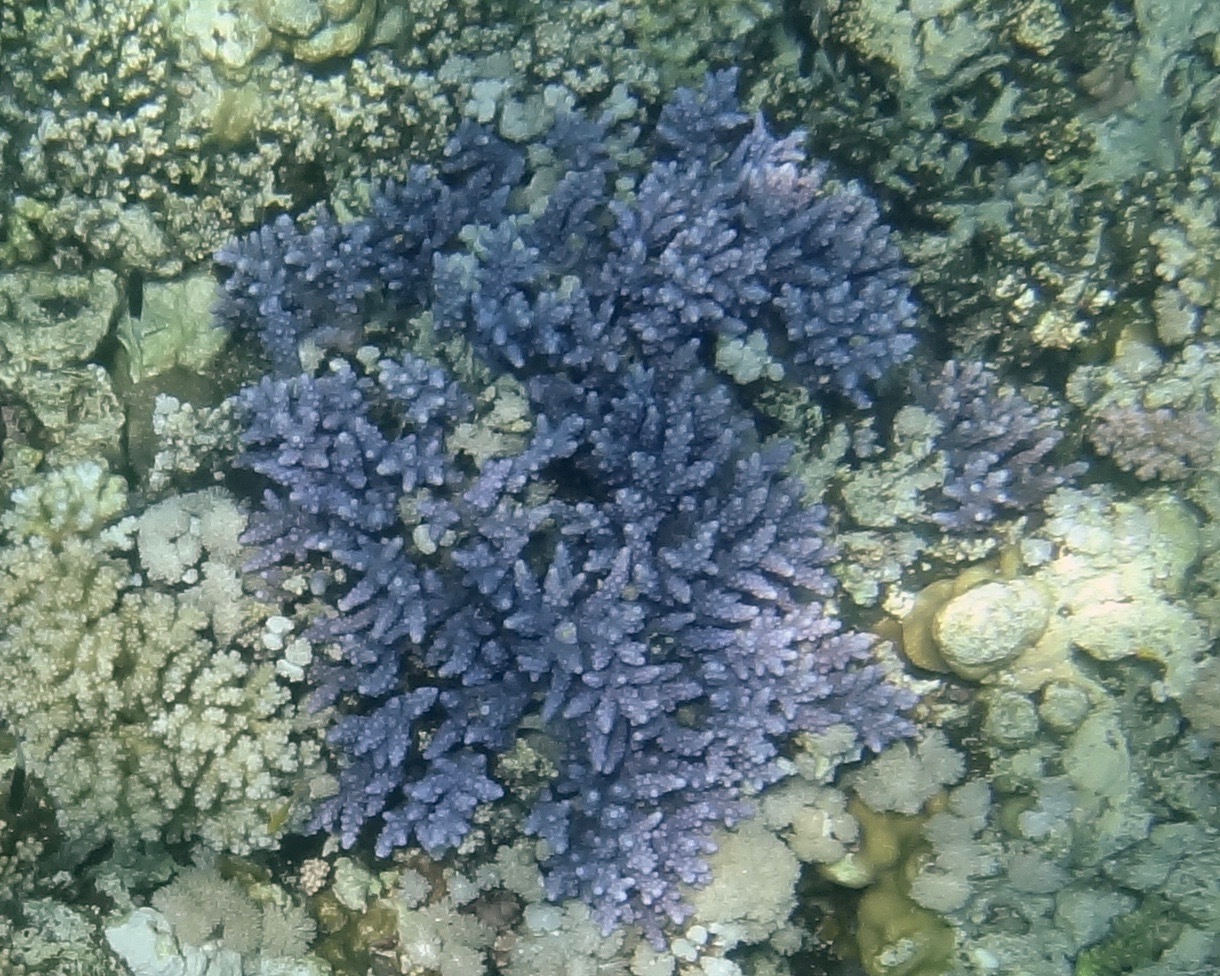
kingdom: Animalia
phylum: Cnidaria
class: Anthozoa
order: Scleractinia
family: Acroporidae
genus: Acropora
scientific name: Acropora hemprichii
